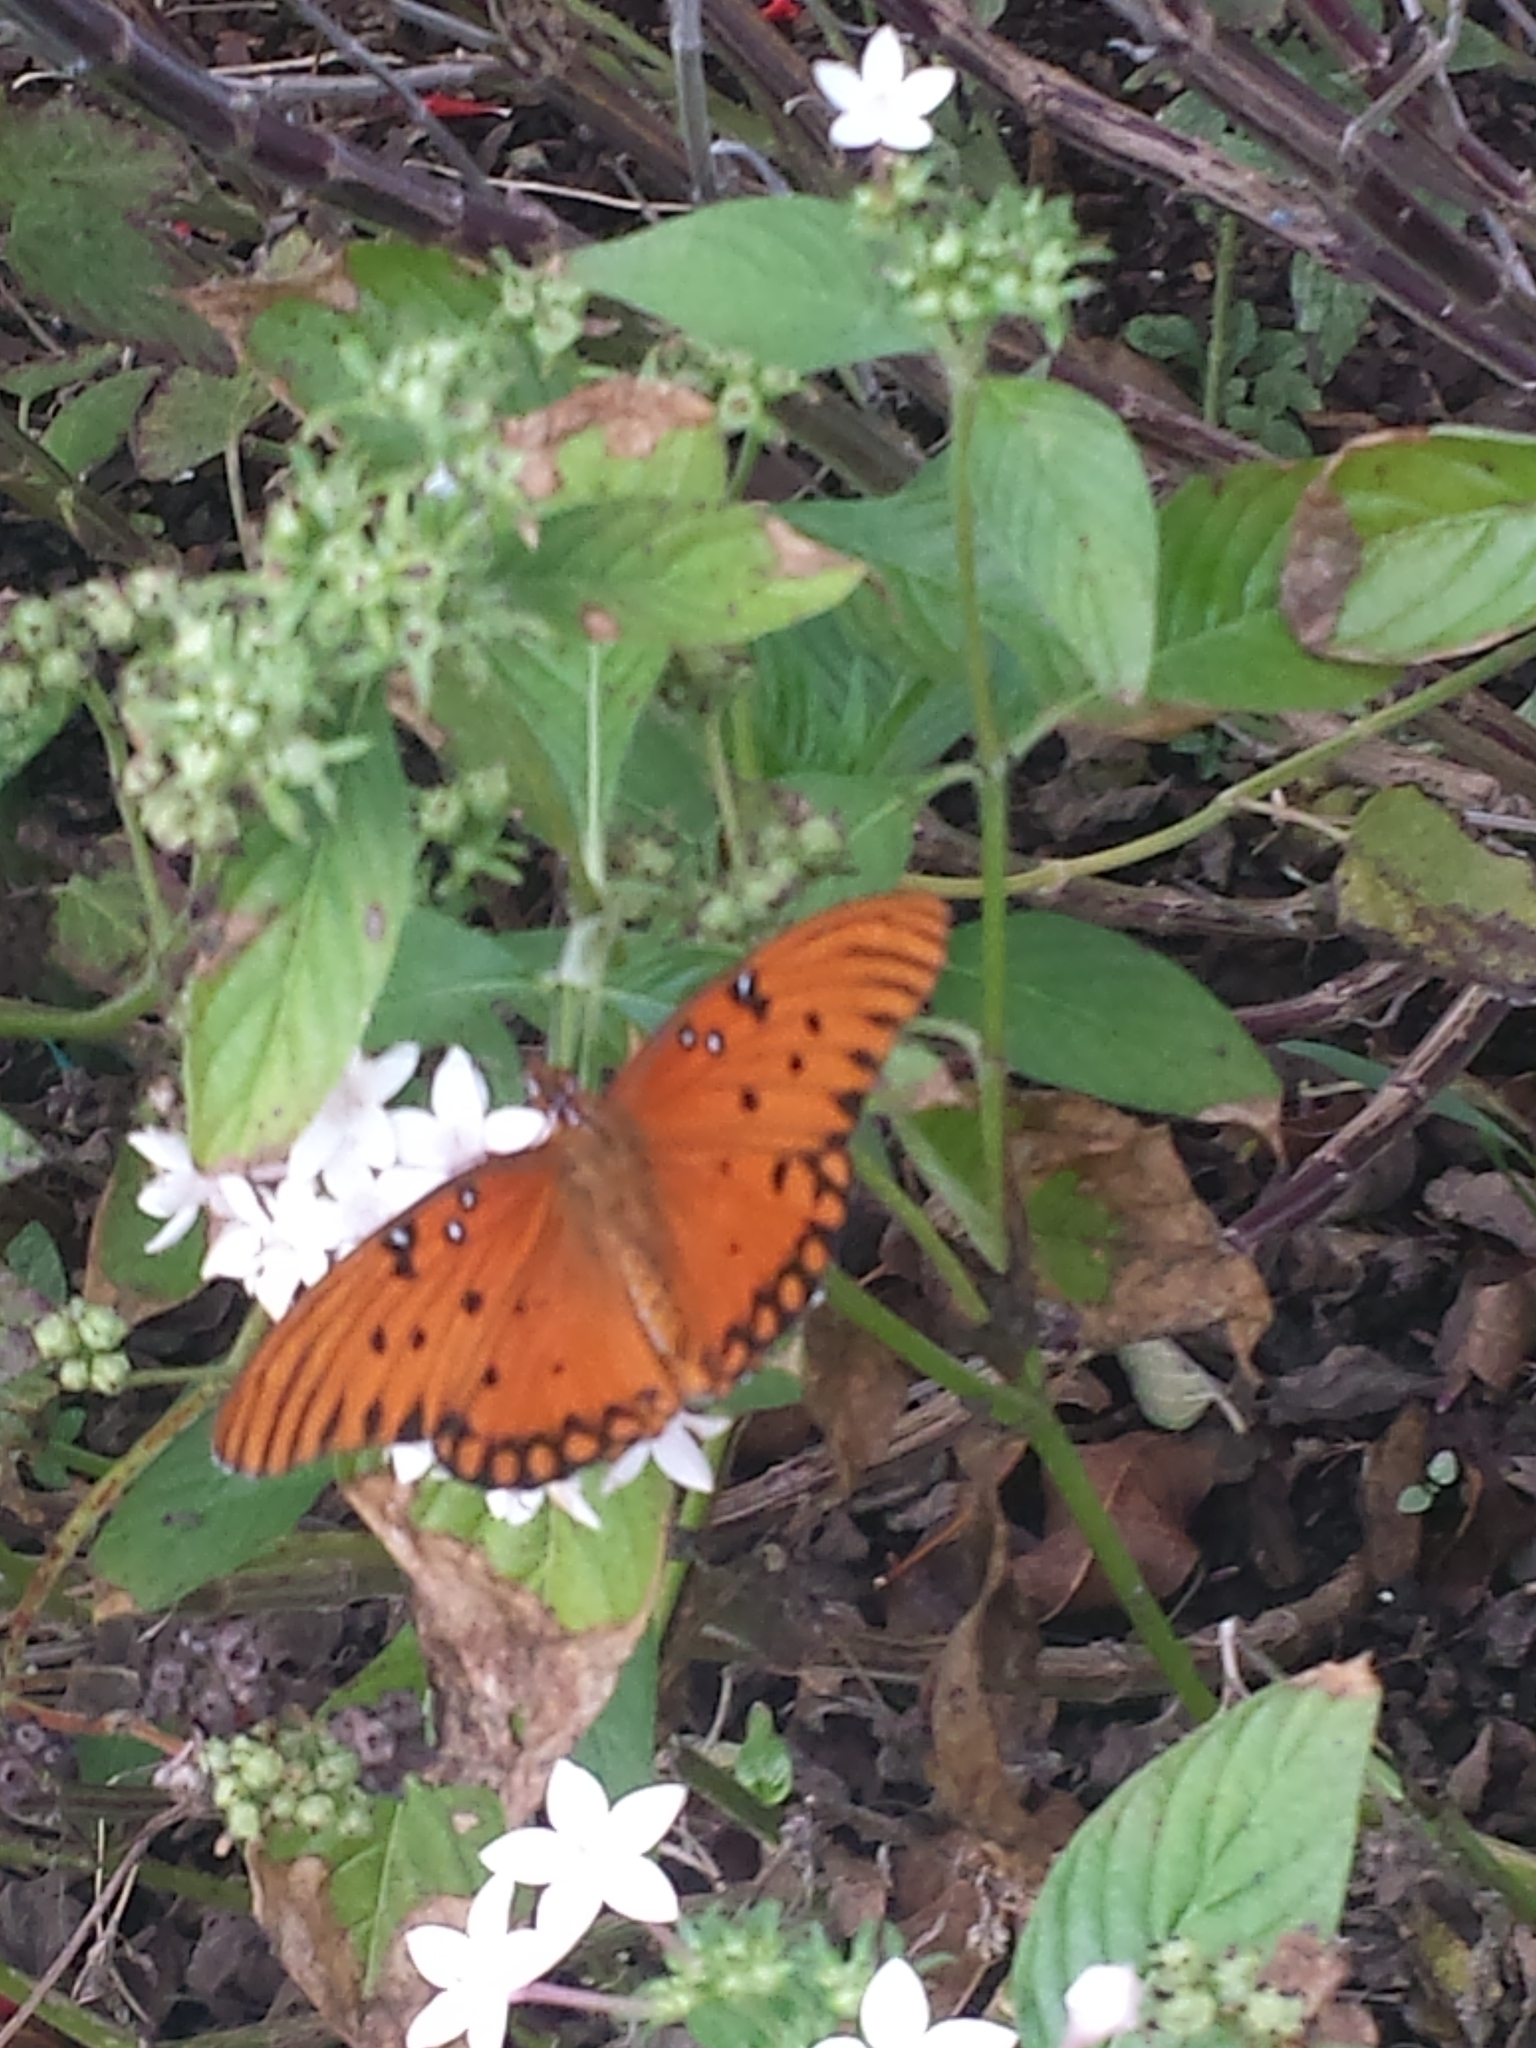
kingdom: Animalia
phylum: Arthropoda
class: Insecta
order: Lepidoptera
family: Nymphalidae
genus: Dione
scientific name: Dione vanillae
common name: Gulf fritillary
